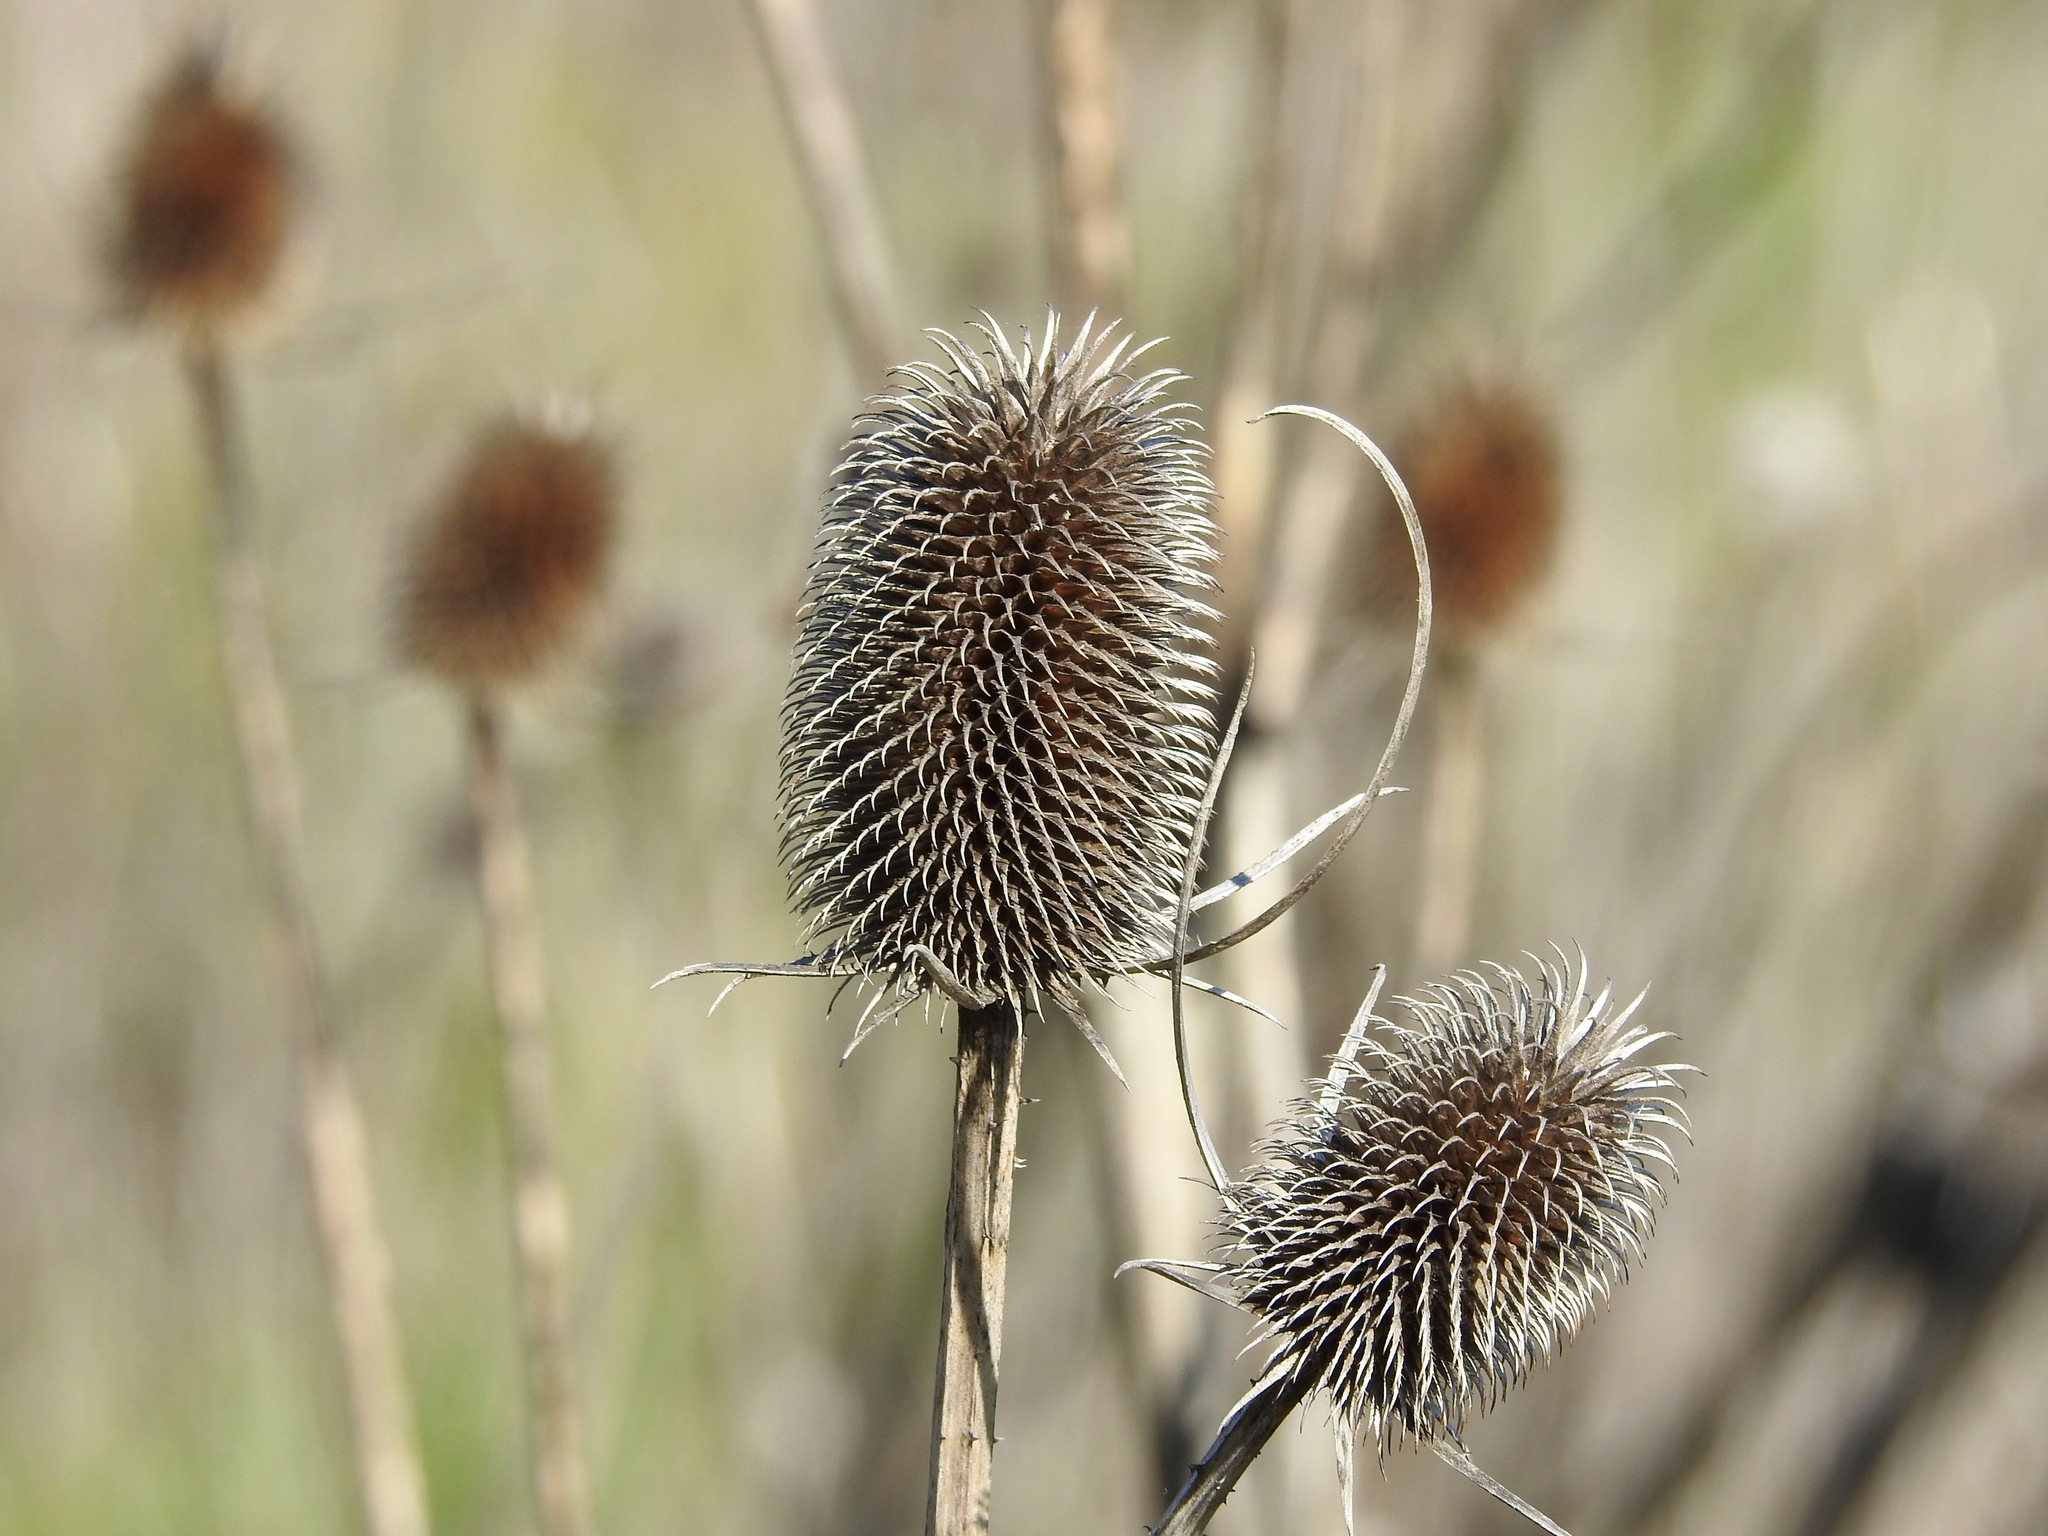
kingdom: Plantae
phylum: Tracheophyta
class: Magnoliopsida
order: Dipsacales
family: Caprifoliaceae
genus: Dipsacus
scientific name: Dipsacus sativus
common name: Fuller's teasel
